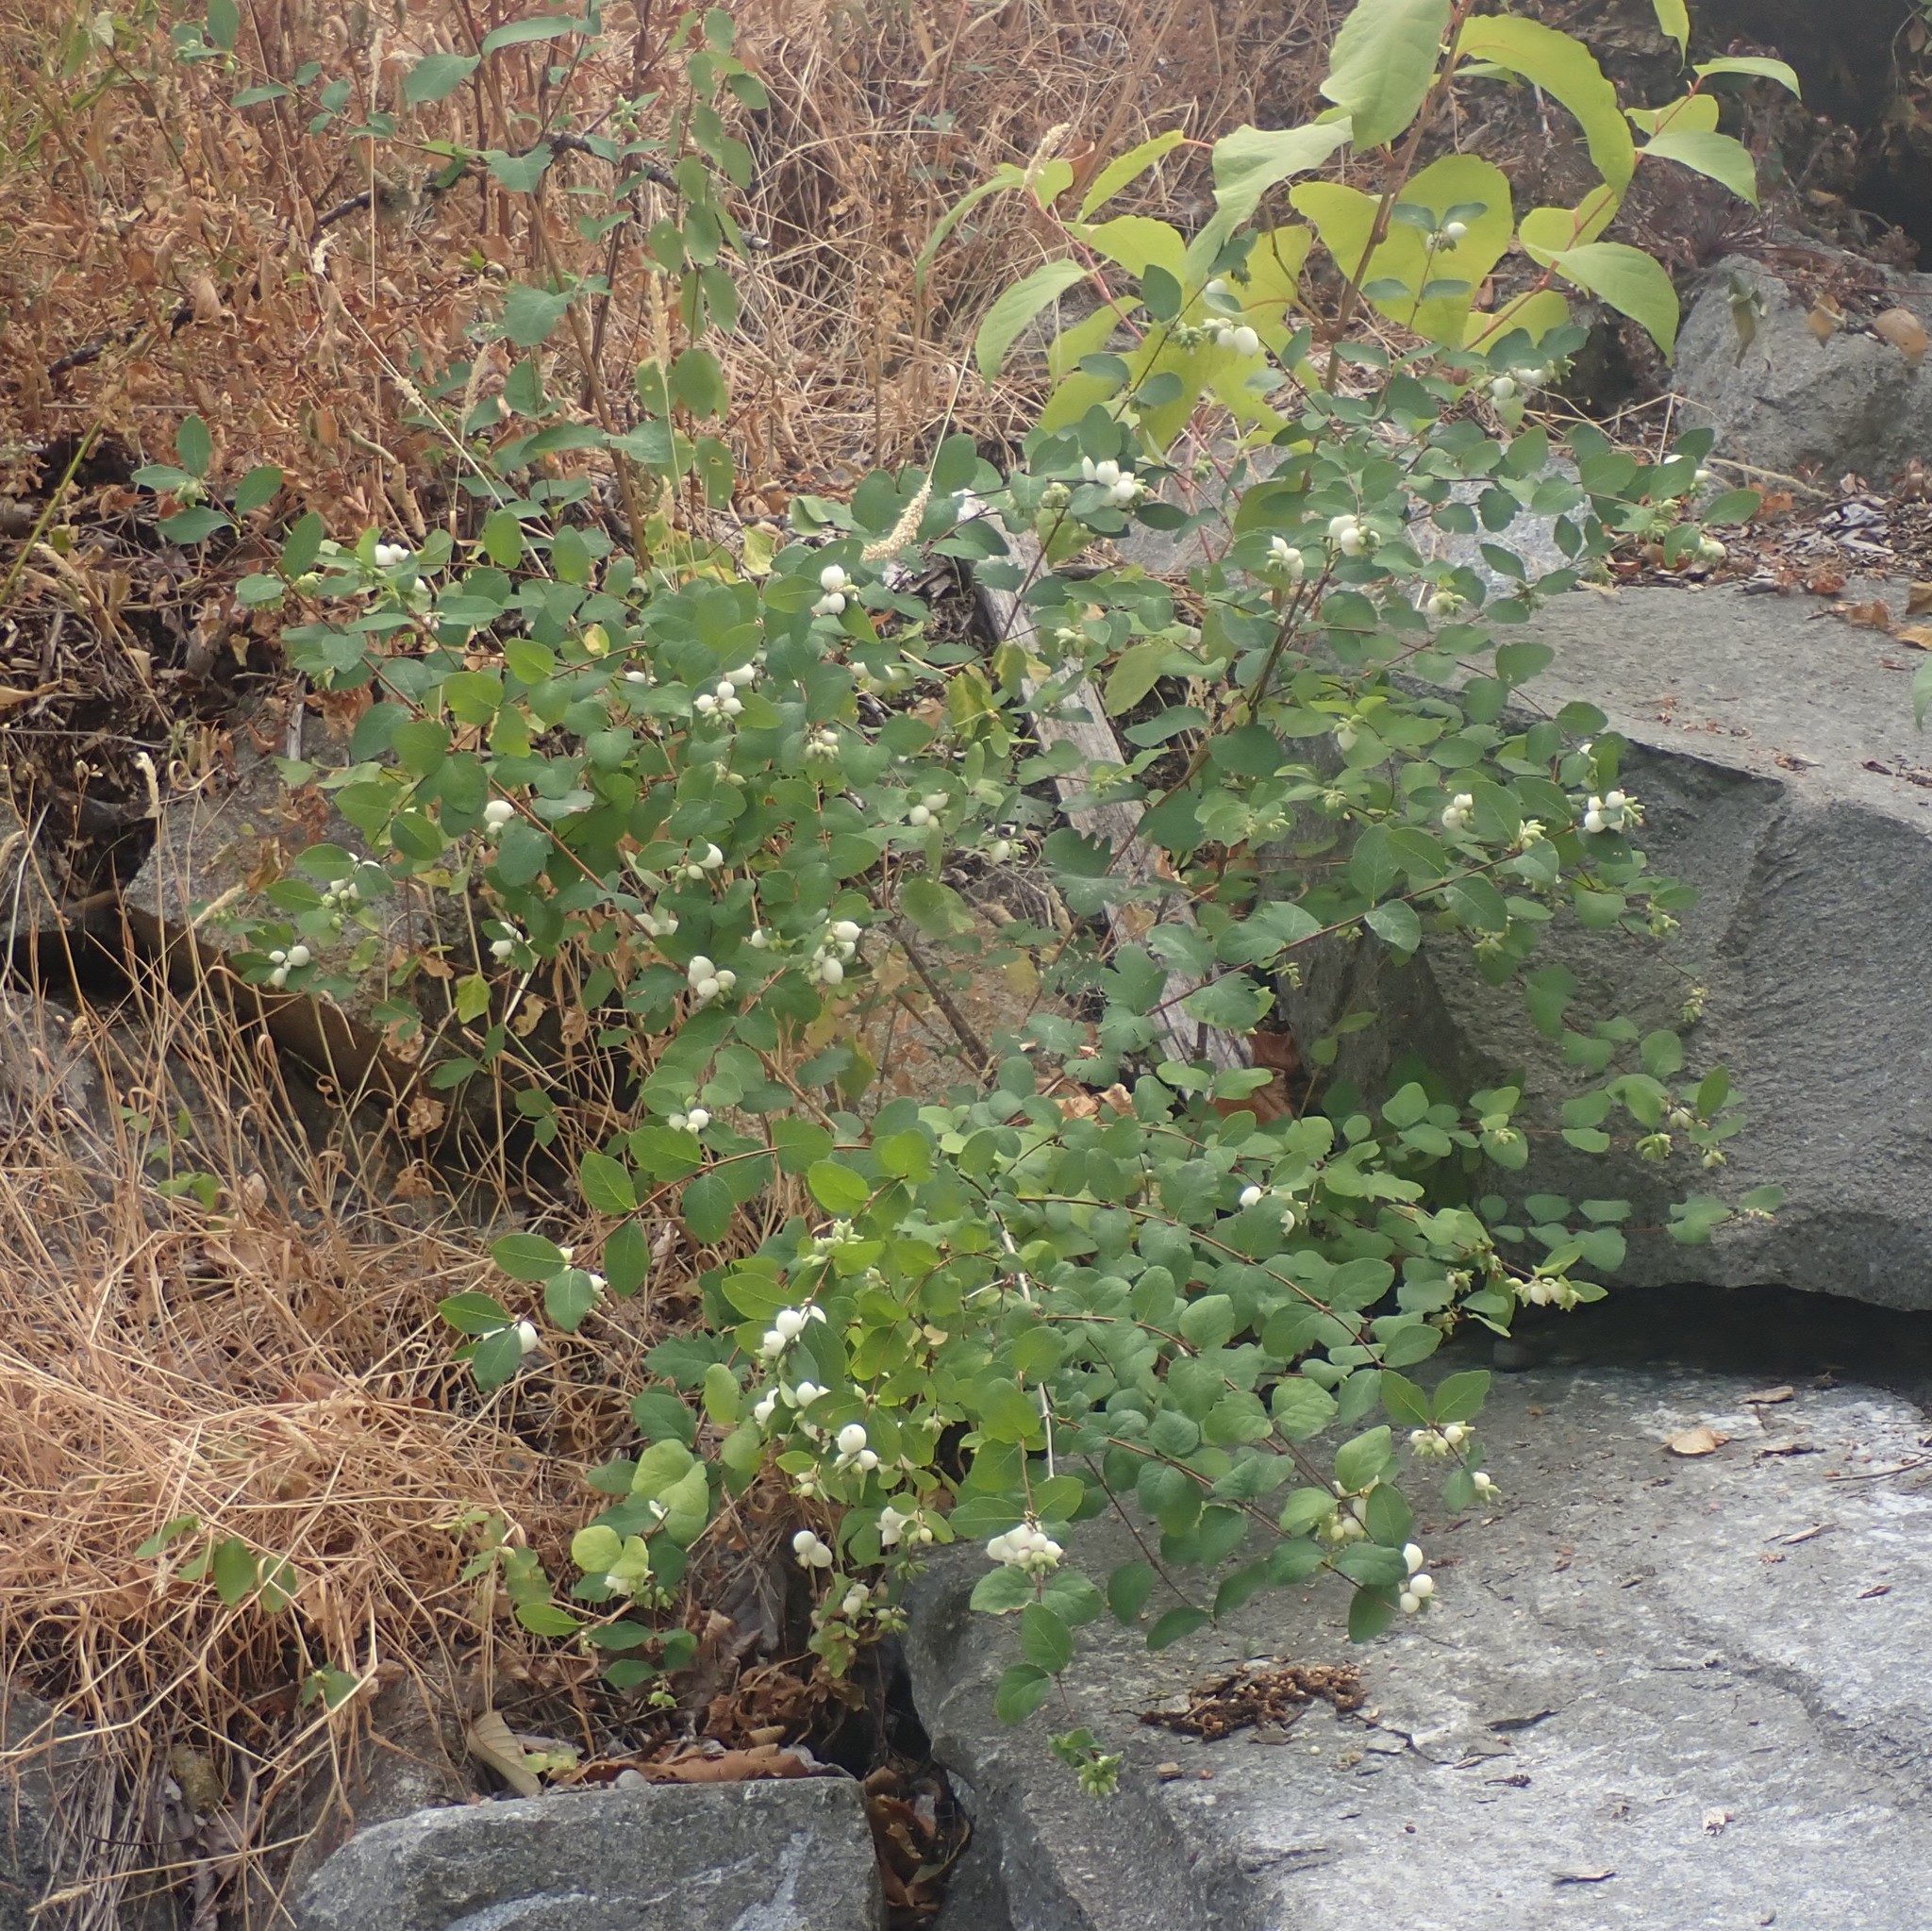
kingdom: Plantae
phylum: Tracheophyta
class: Magnoliopsida
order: Dipsacales
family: Caprifoliaceae
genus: Symphoricarpos
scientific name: Symphoricarpos albus
